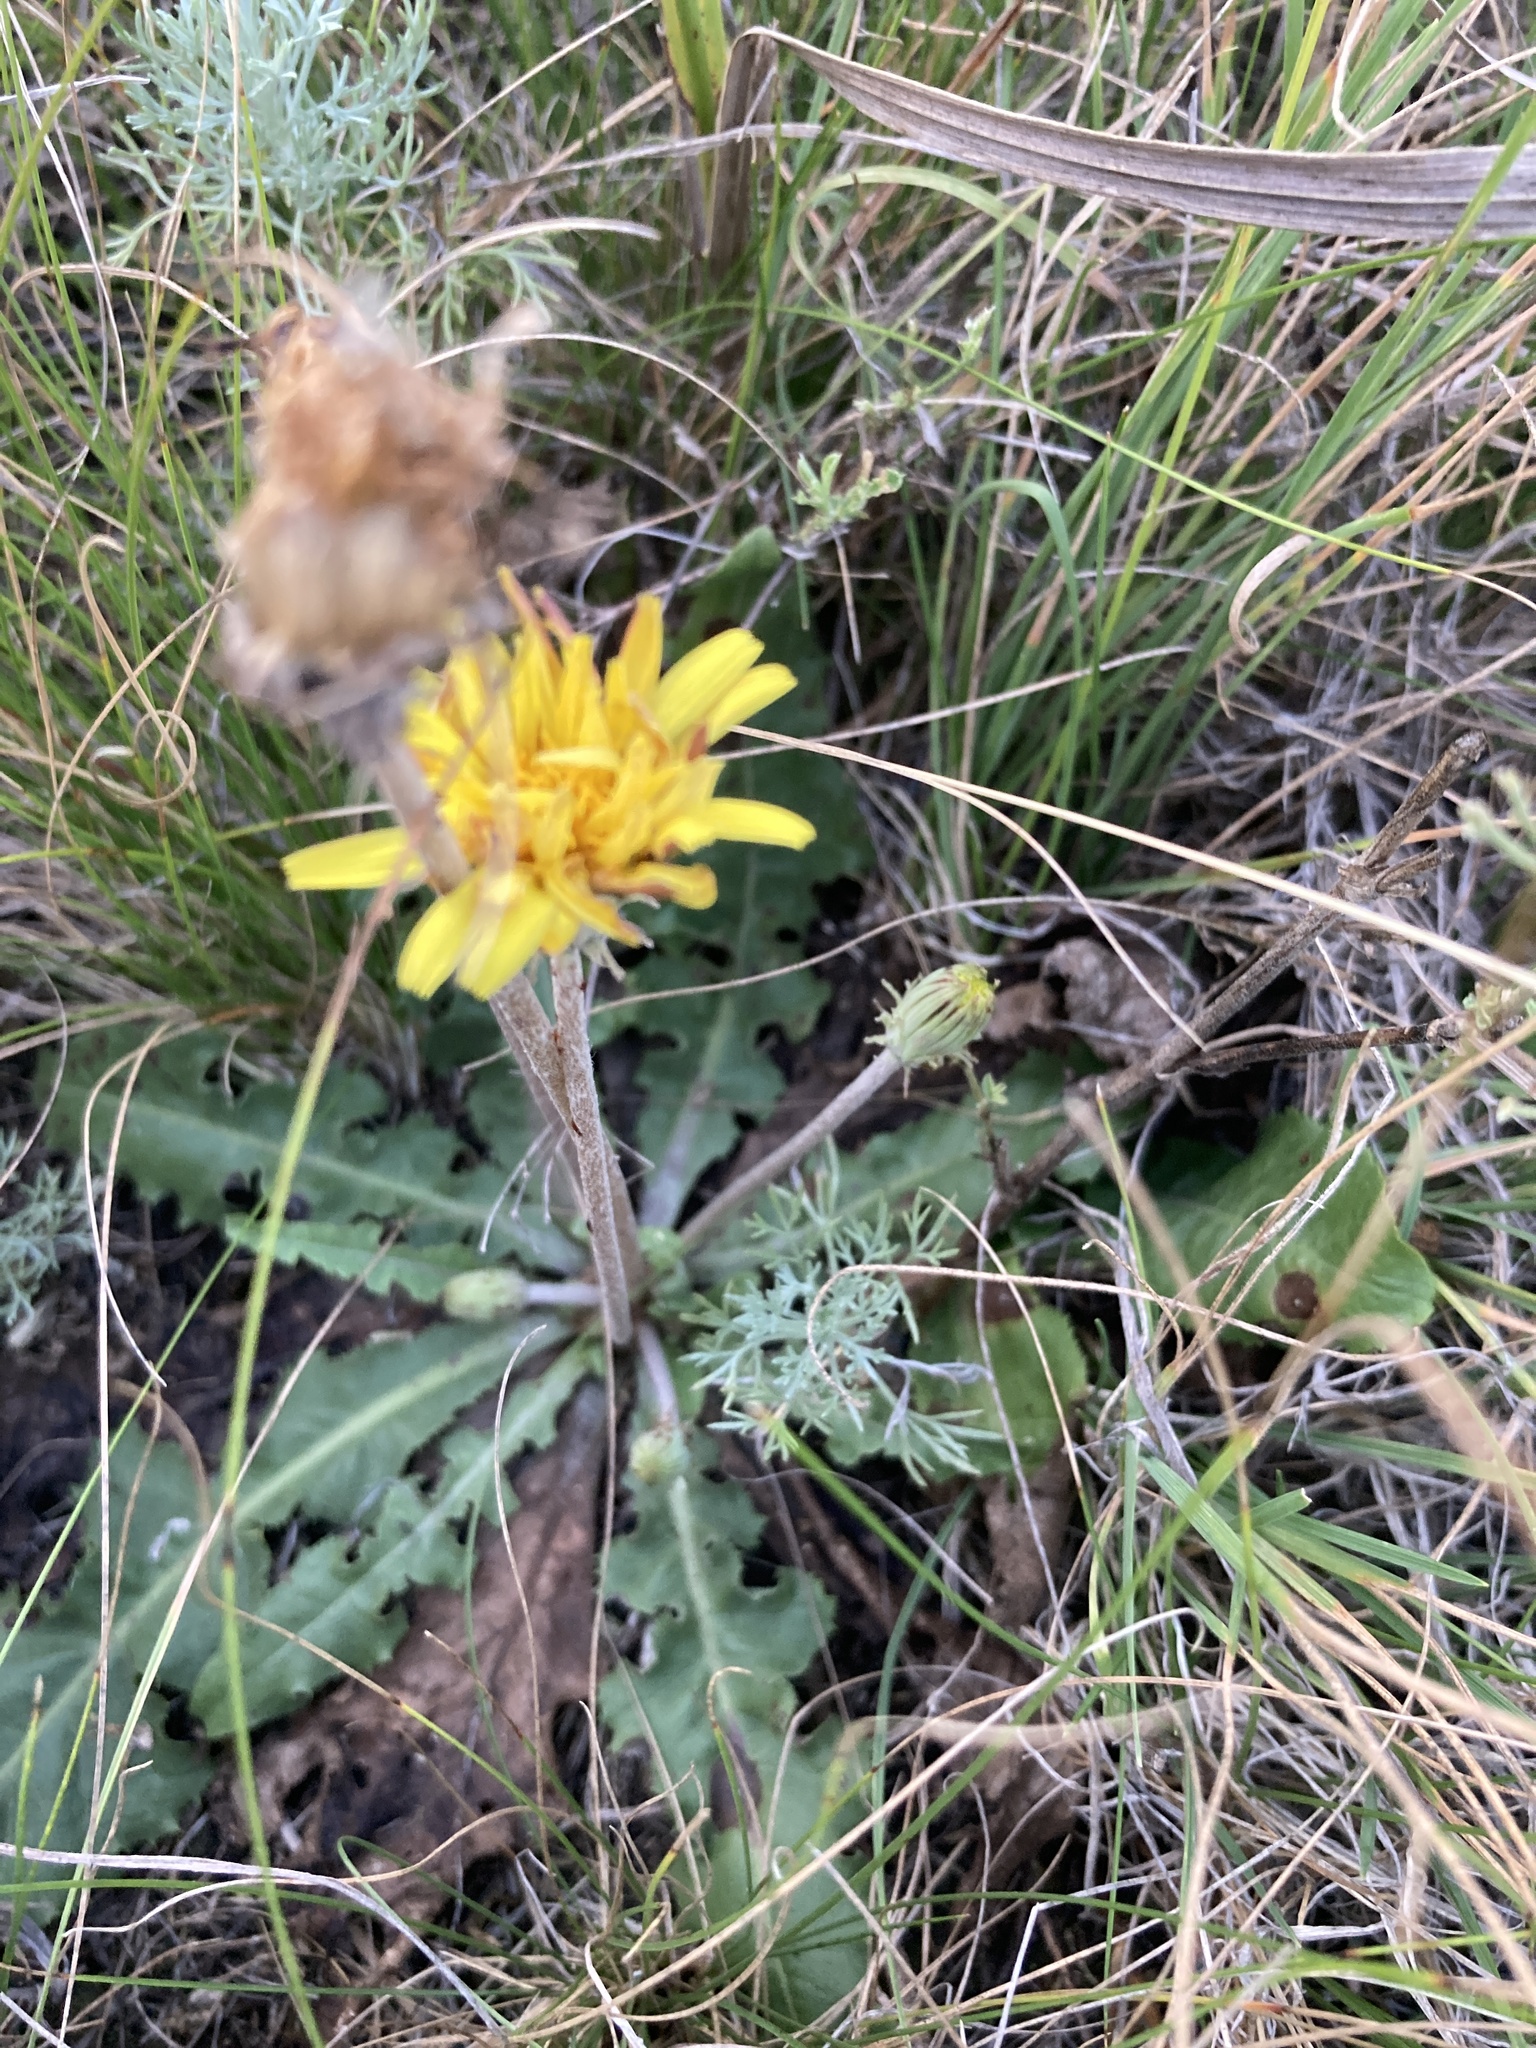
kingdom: Plantae
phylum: Tracheophyta
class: Magnoliopsida
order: Asterales
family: Asteraceae
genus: Taraxacum
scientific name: Taraxacum serotinum
